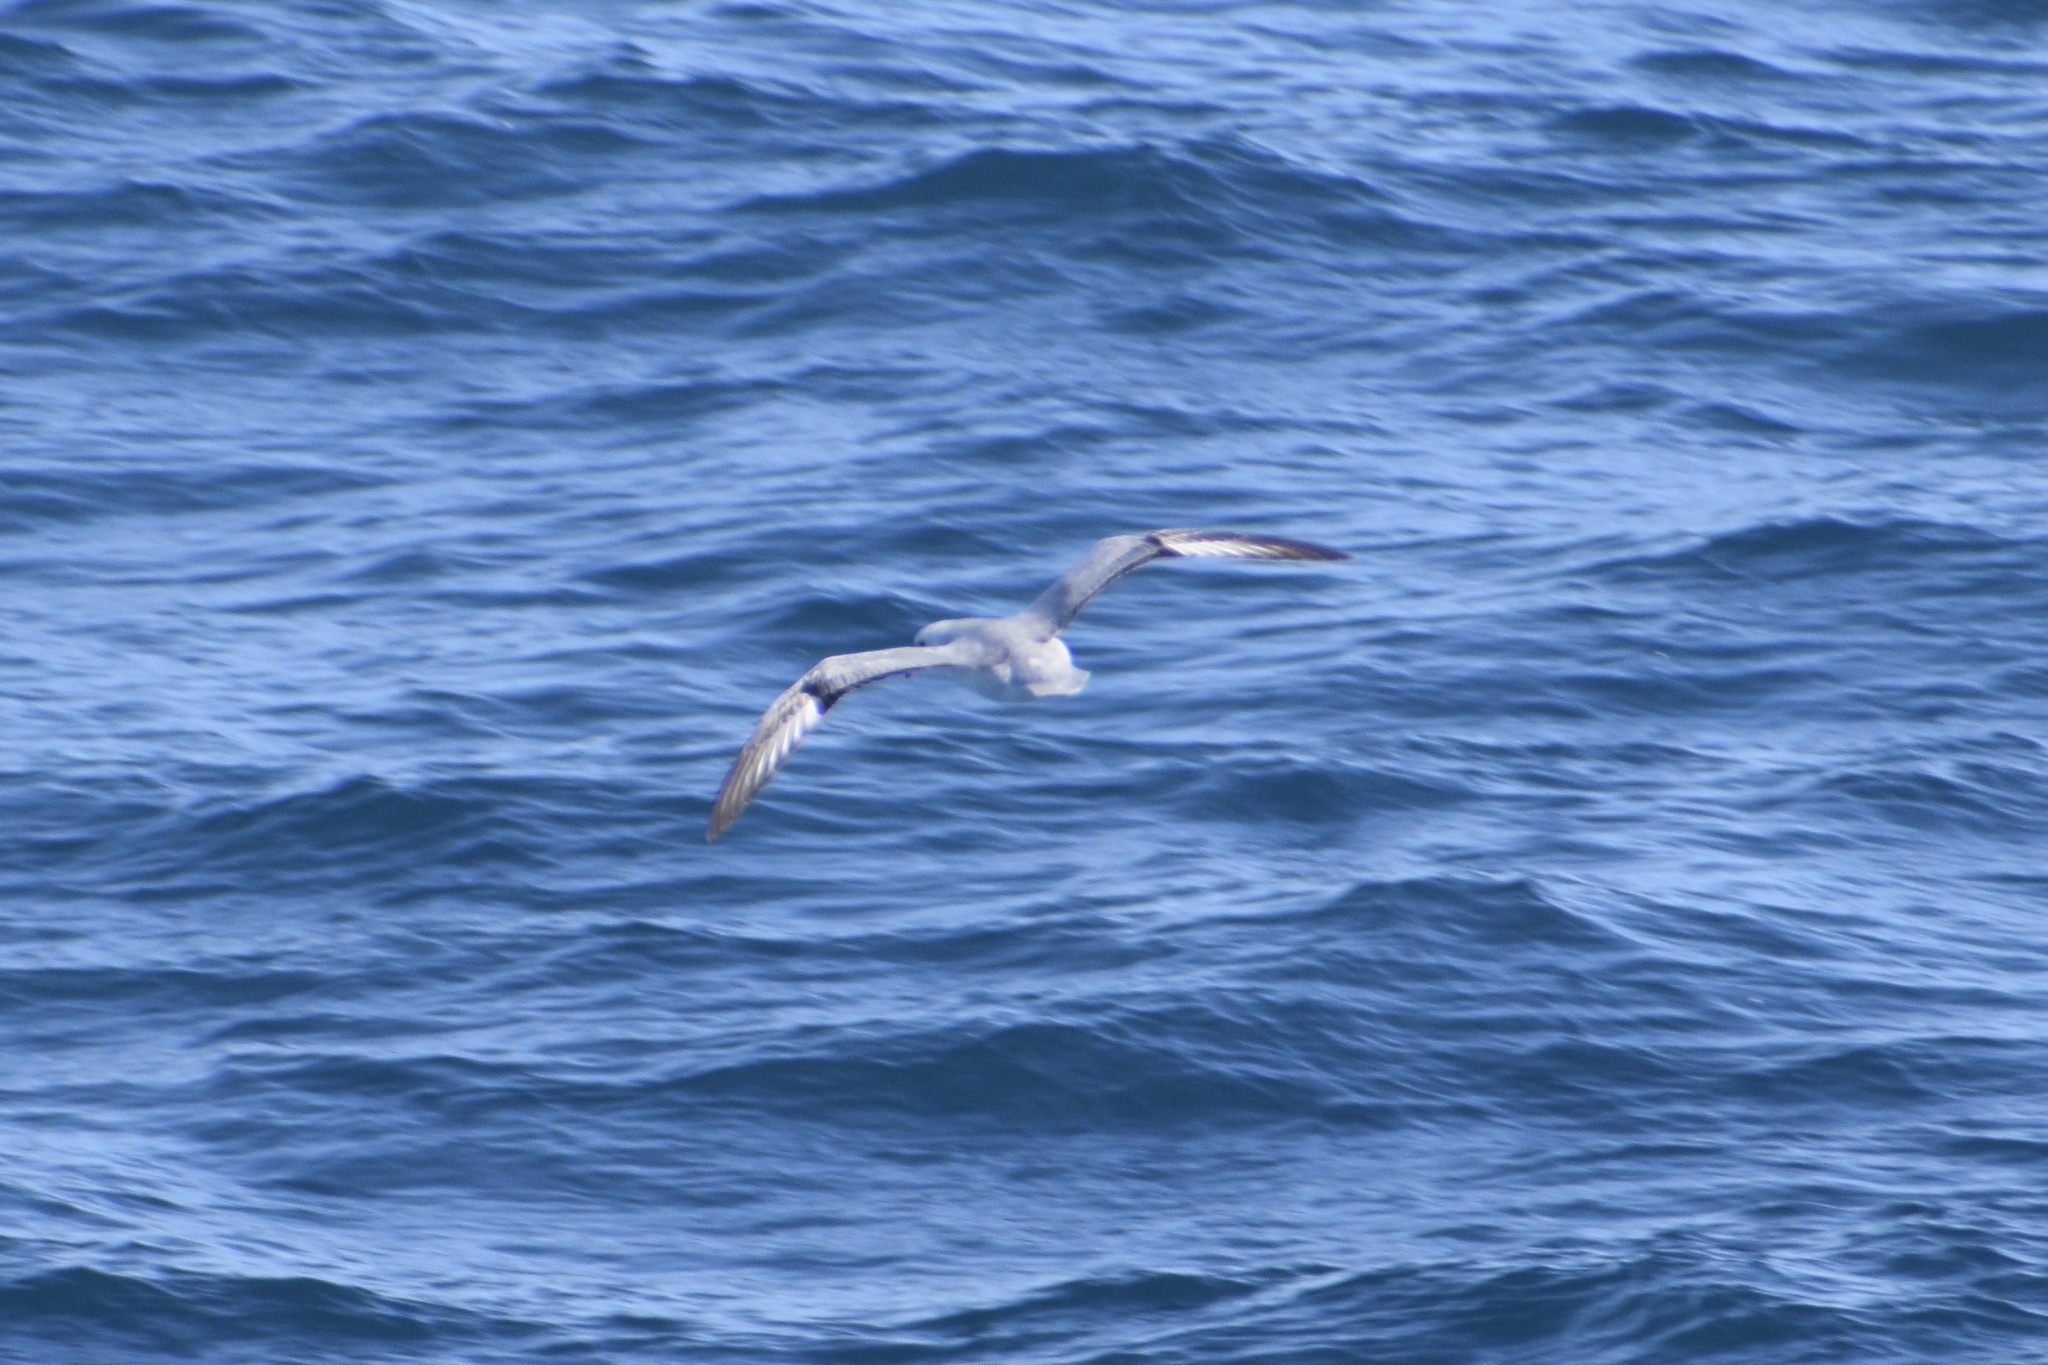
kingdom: Animalia
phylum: Chordata
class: Aves
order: Procellariiformes
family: Procellariidae
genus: Fulmarus
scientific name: Fulmarus glacialoides
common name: Southern fulmar
